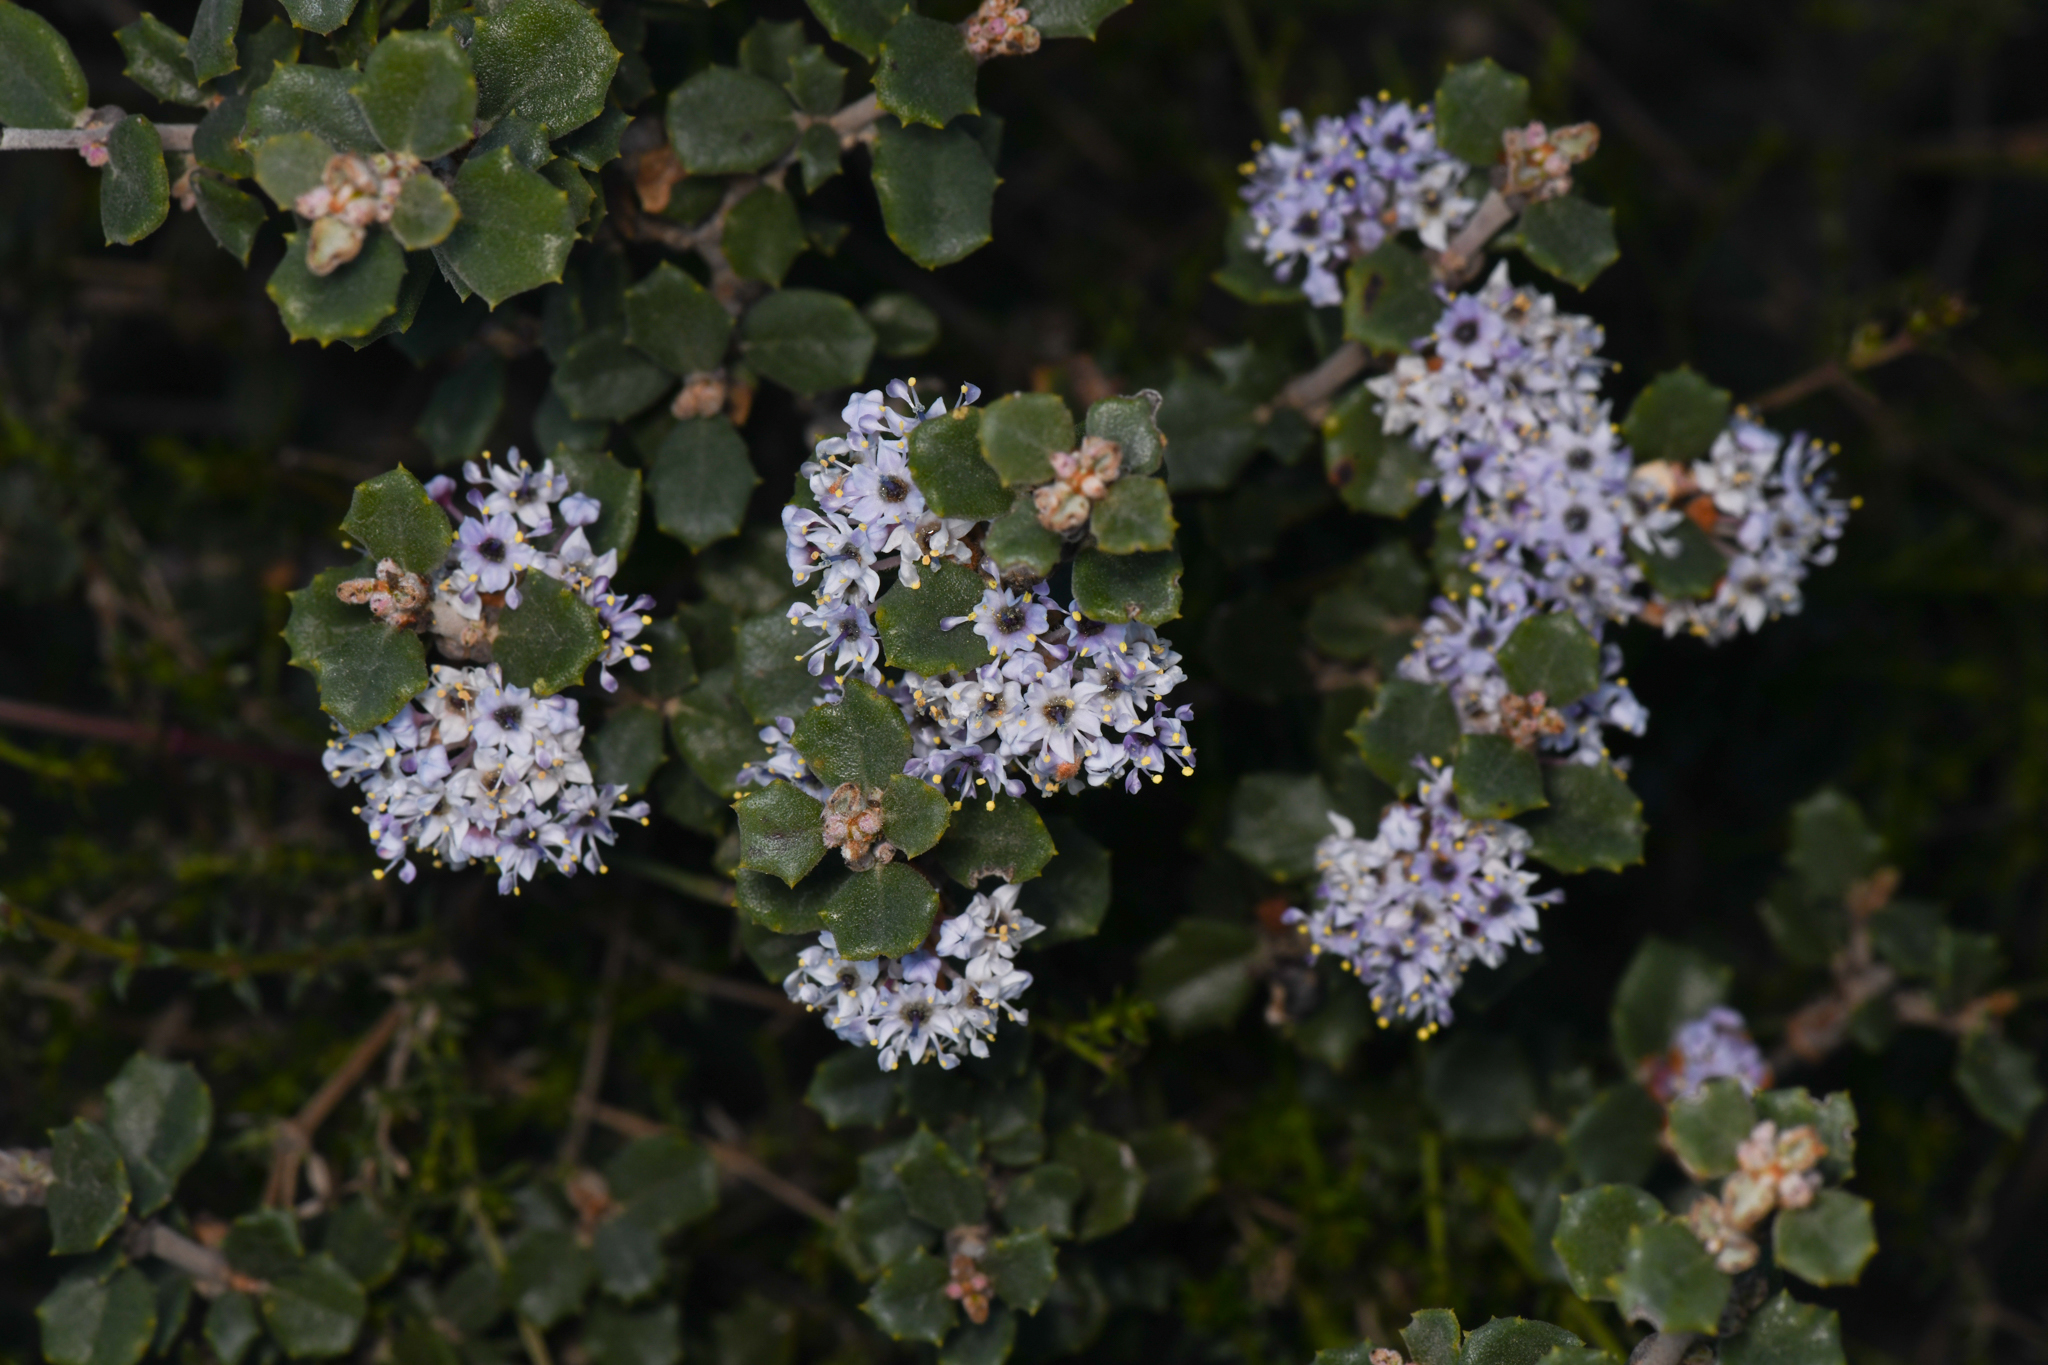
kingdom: Plantae
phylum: Tracheophyta
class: Magnoliopsida
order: Rosales
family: Rhamnaceae
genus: Ceanothus
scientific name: Ceanothus otayensis
